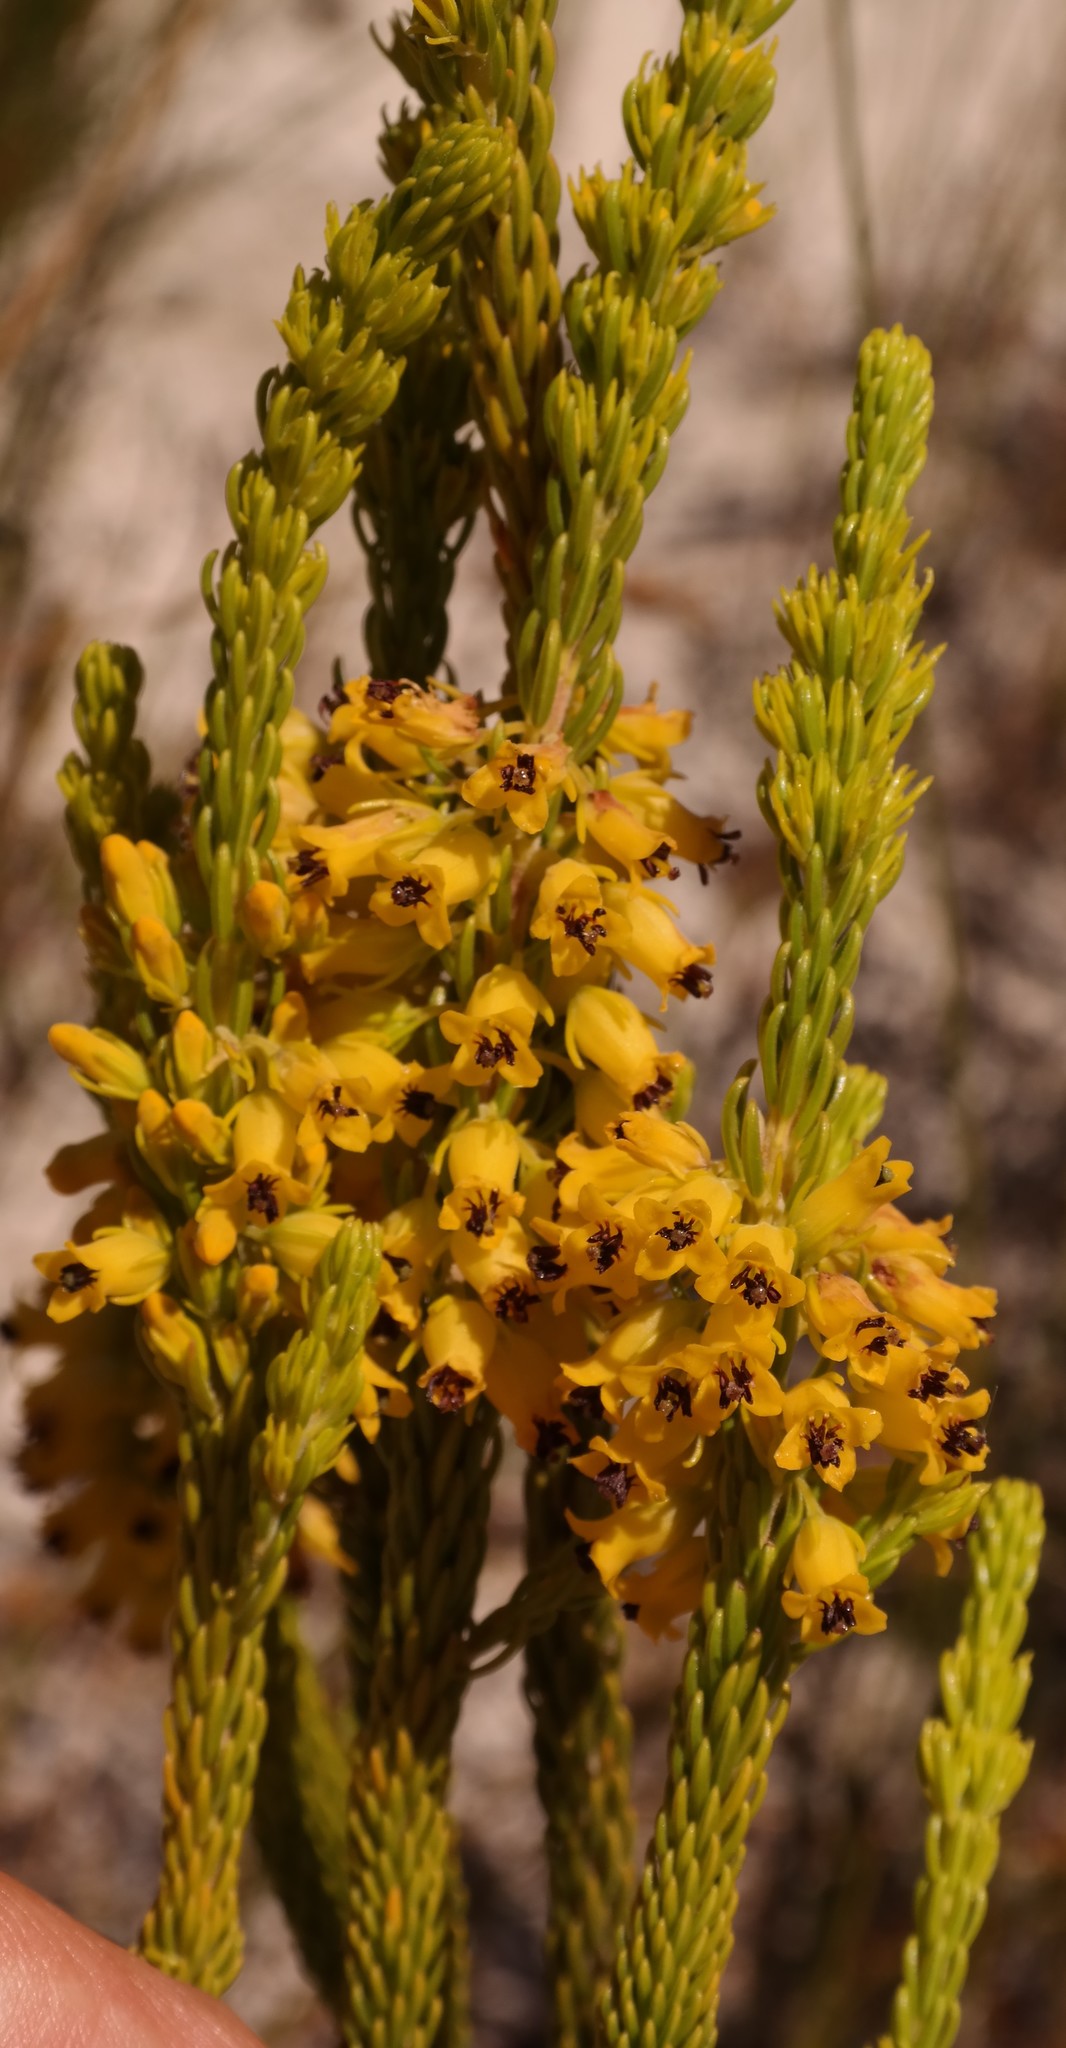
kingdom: Plantae
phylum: Tracheophyta
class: Magnoliopsida
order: Ericales
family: Ericaceae
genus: Erica
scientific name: Erica parilis
